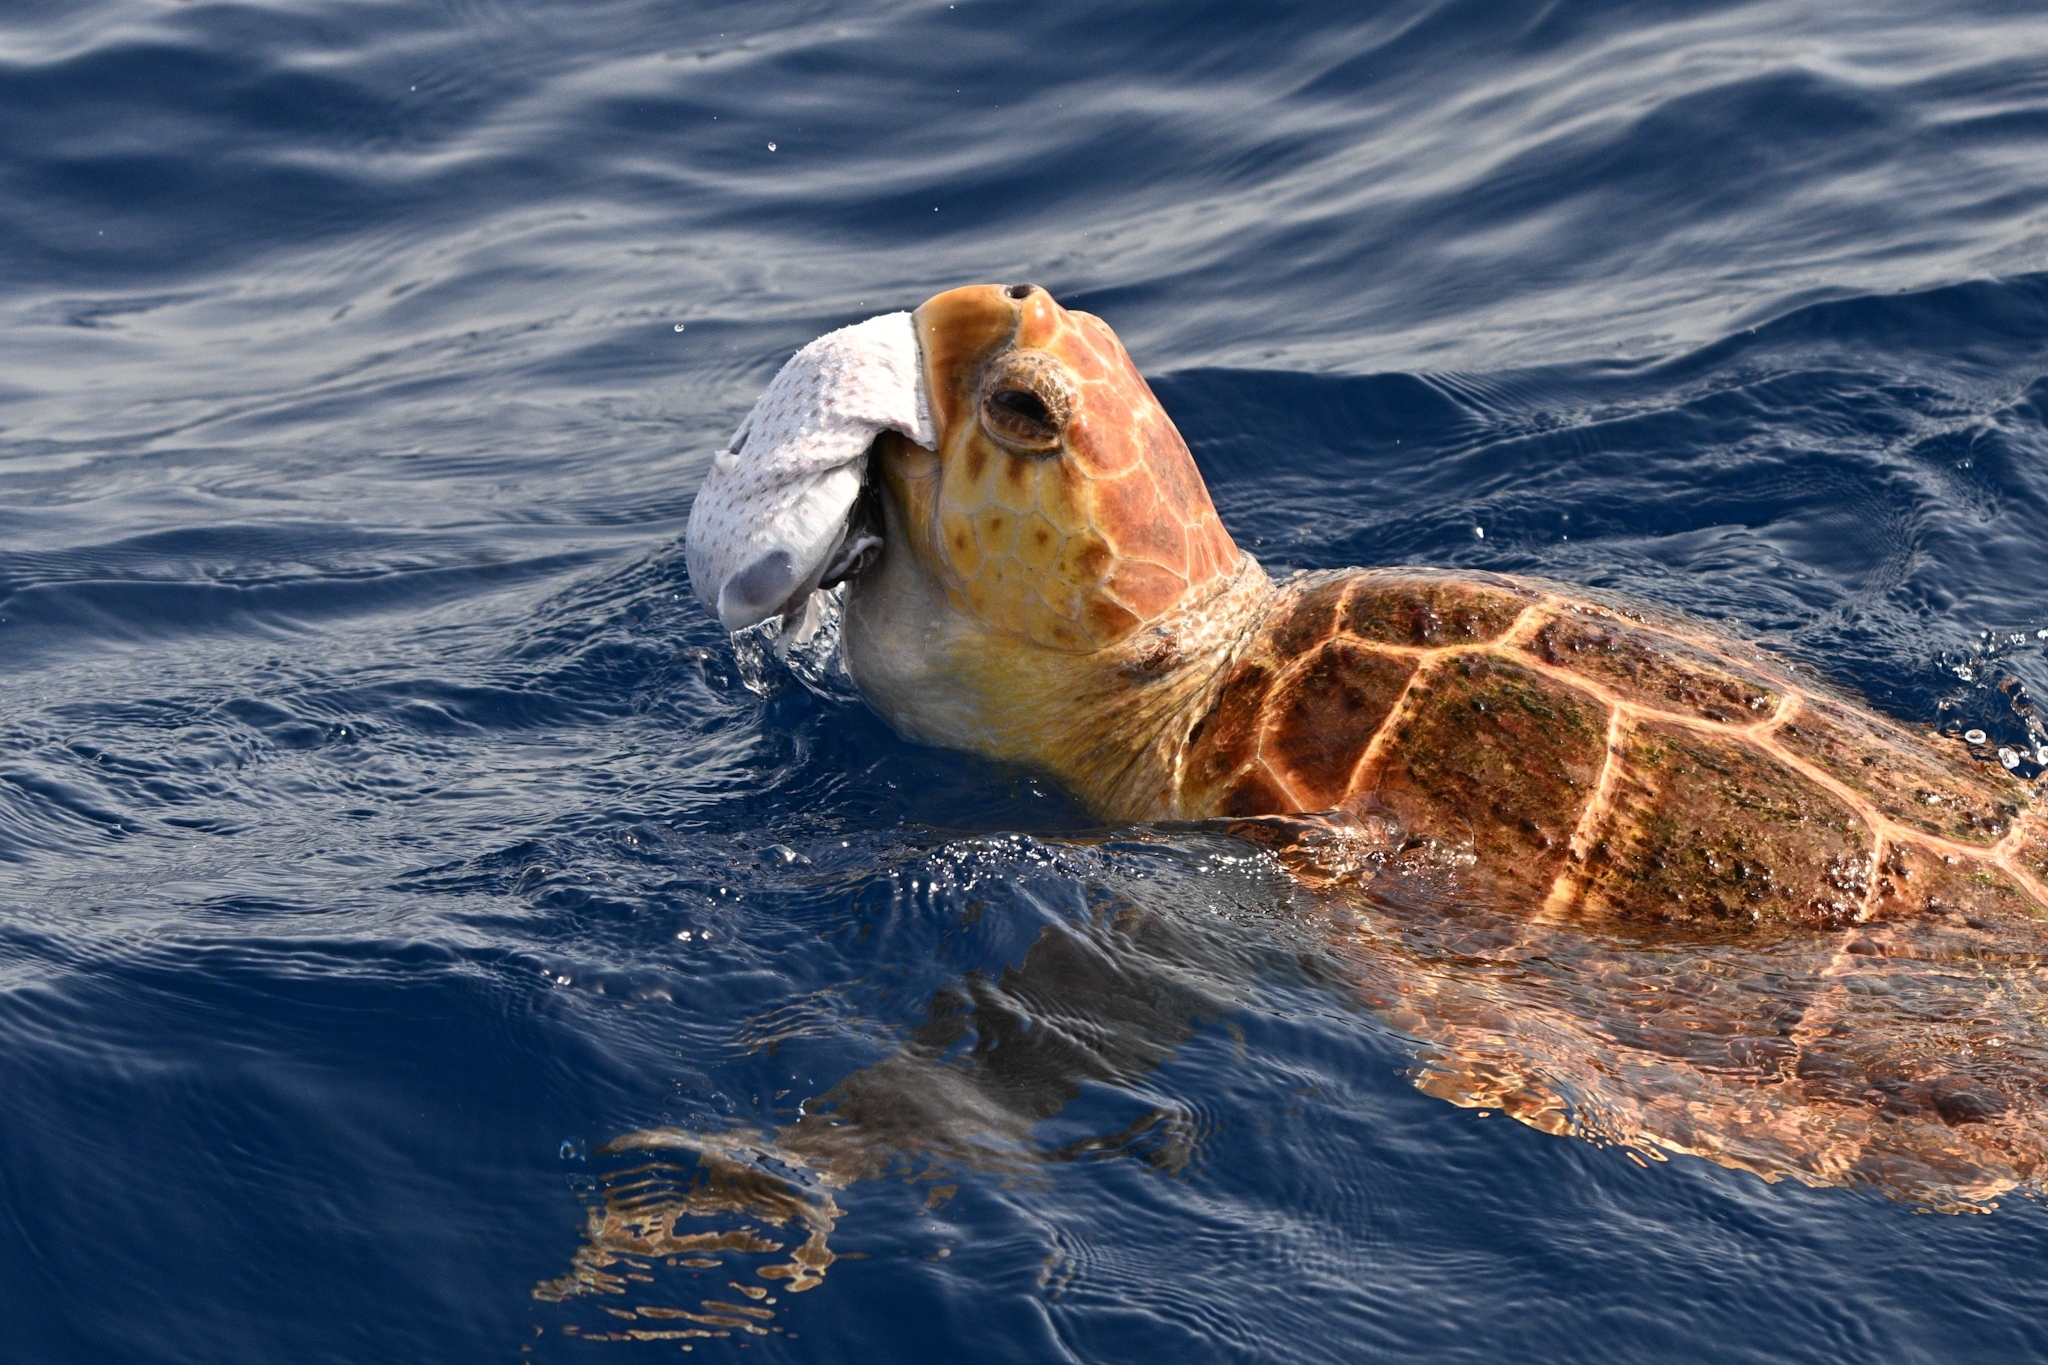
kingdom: Animalia
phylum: Chordata
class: Testudines
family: Cheloniidae
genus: Caretta
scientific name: Caretta caretta
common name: Loggerhead sea turtle
